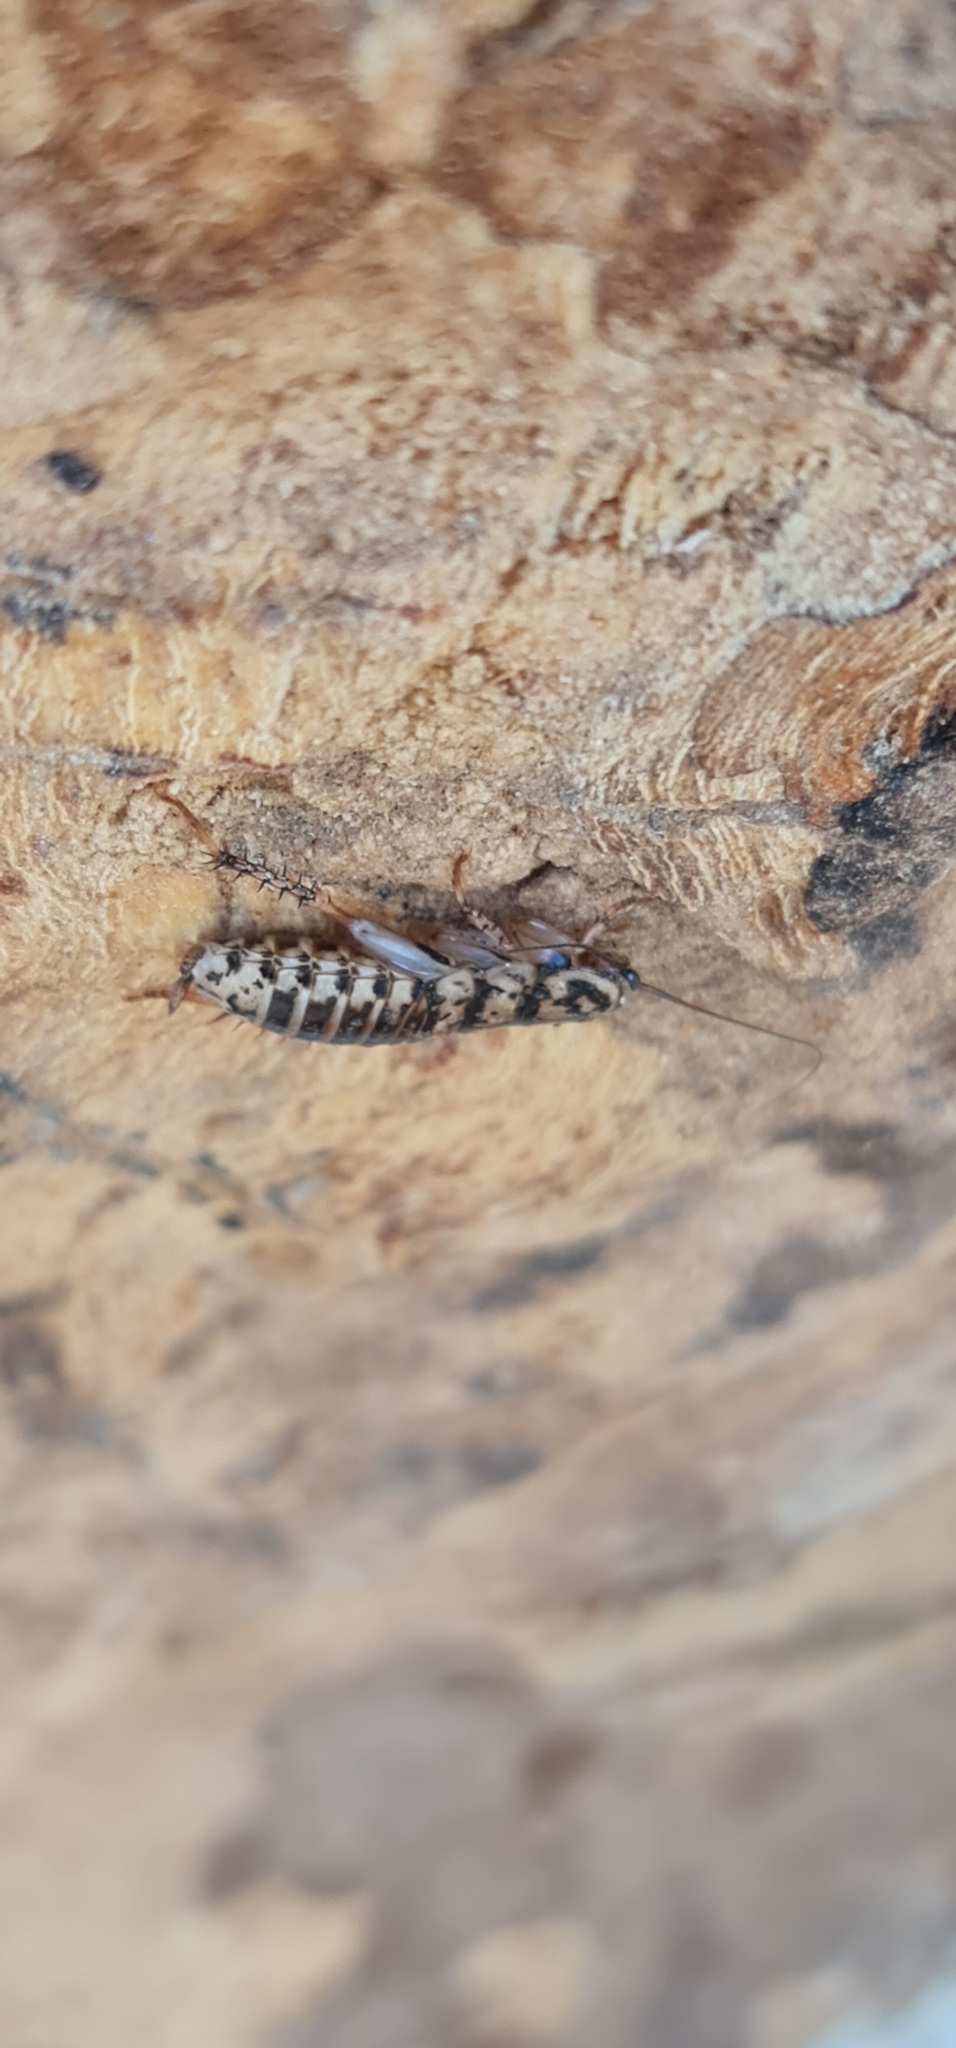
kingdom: Animalia
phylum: Arthropoda
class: Insecta
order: Blattodea
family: Blattidae
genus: Neostylopyga
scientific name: Neostylopyga rhombifolia
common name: Harlequin cockroach
